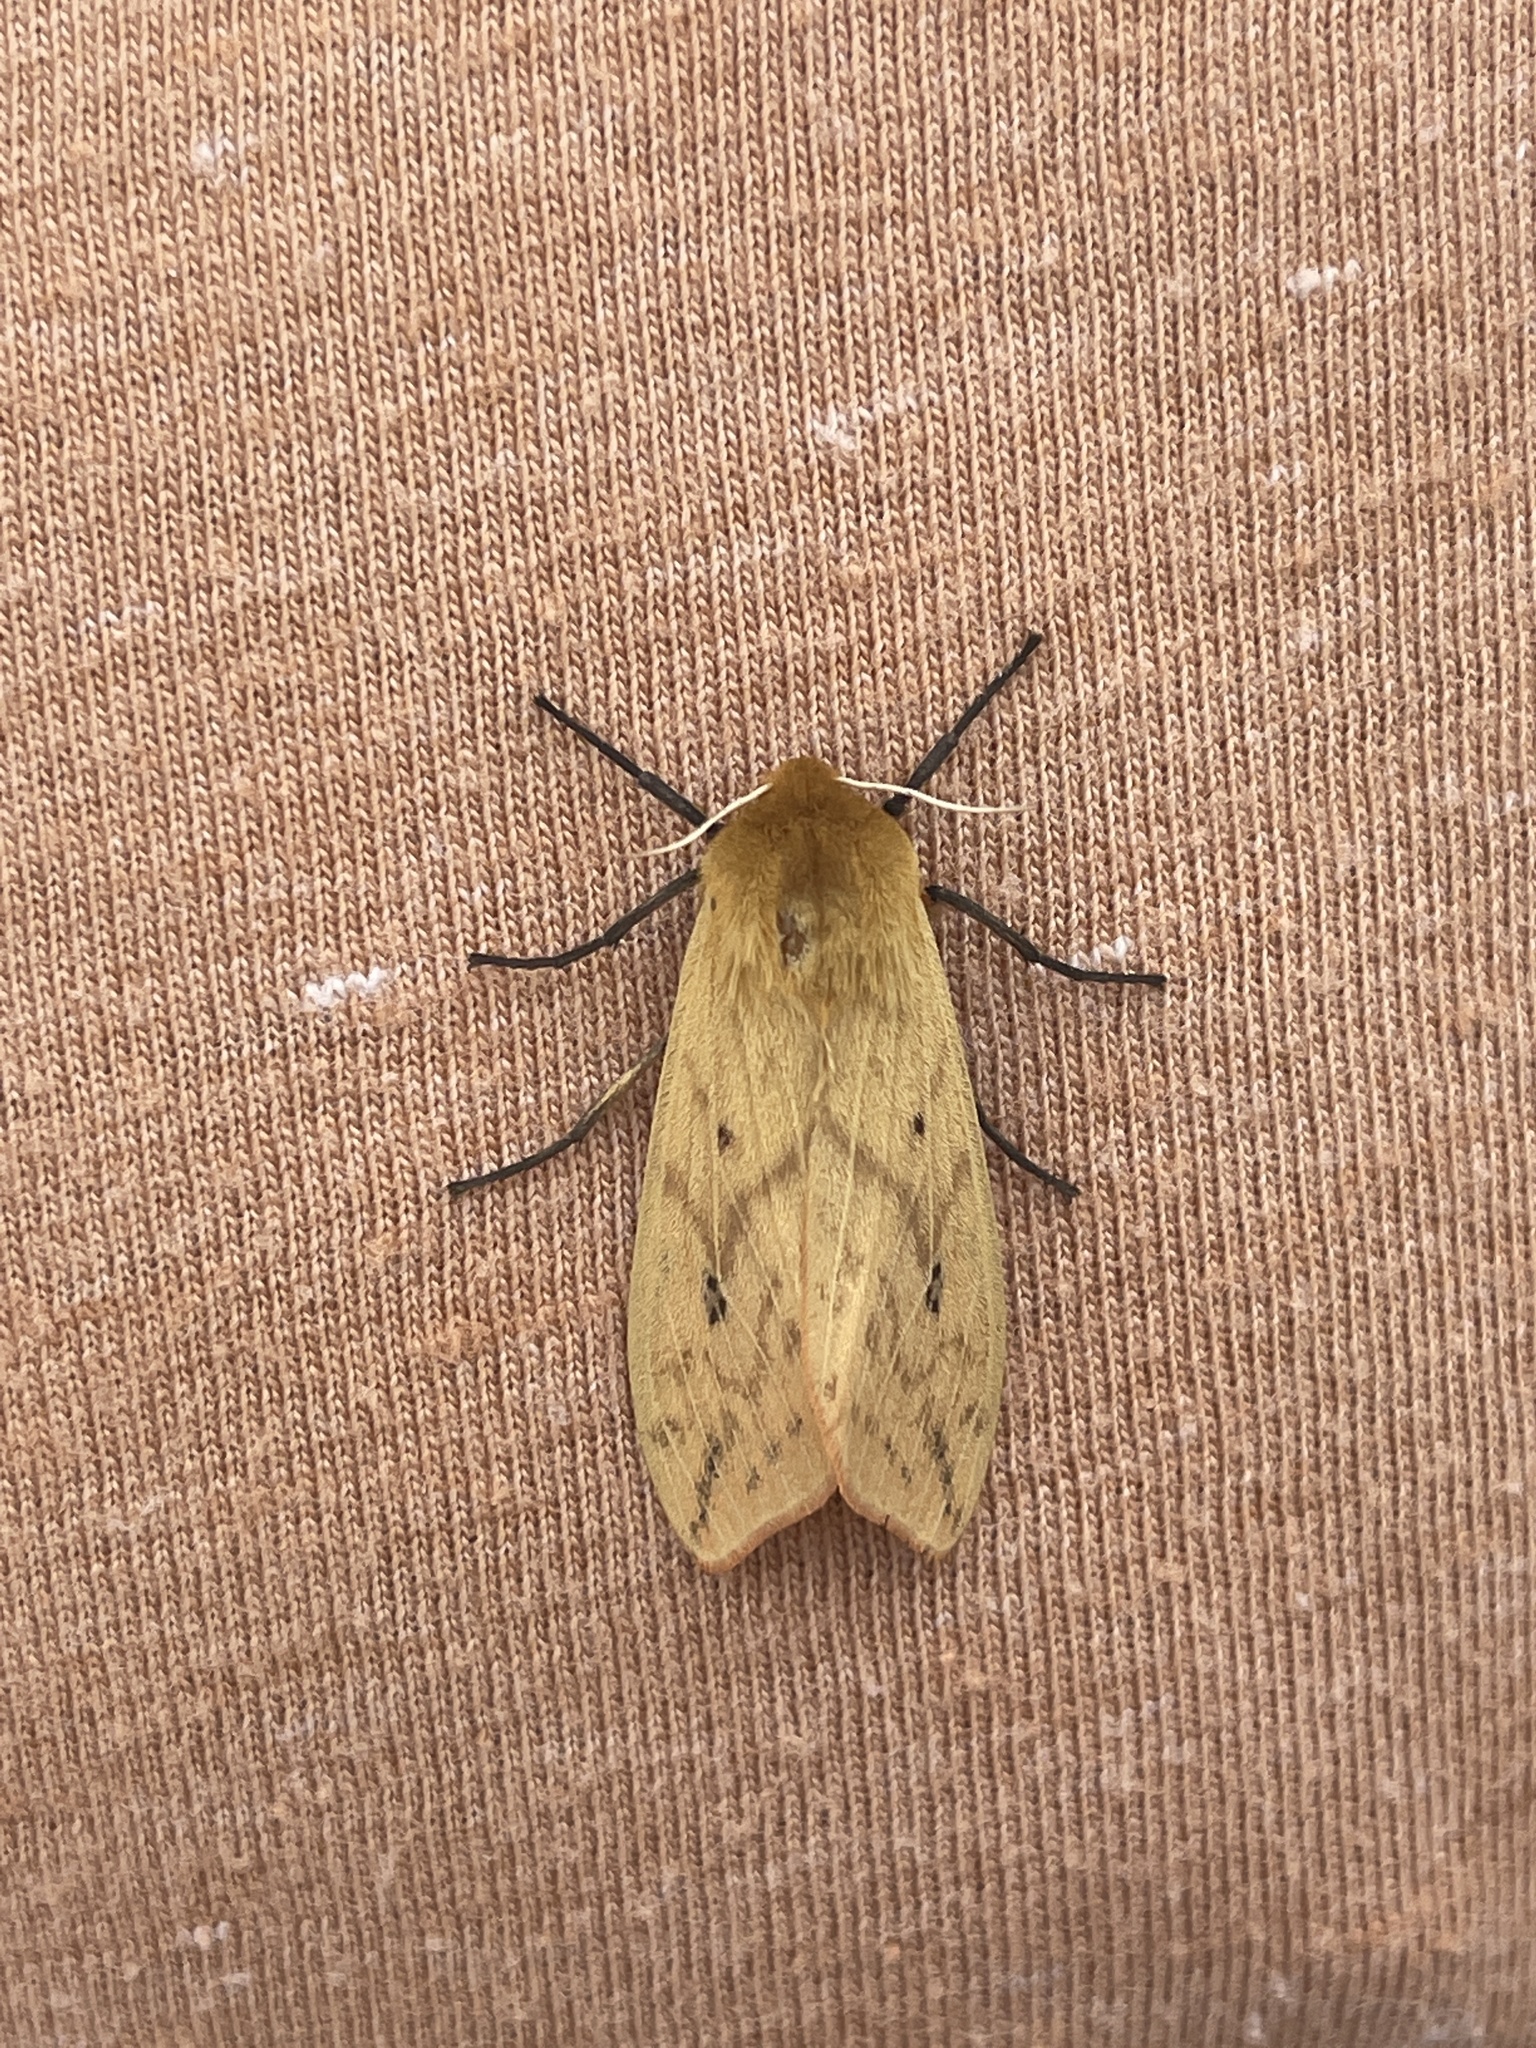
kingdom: Animalia
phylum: Arthropoda
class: Insecta
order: Lepidoptera
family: Erebidae
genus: Pyrrharctia
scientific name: Pyrrharctia isabella
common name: Isabella tiger moth
